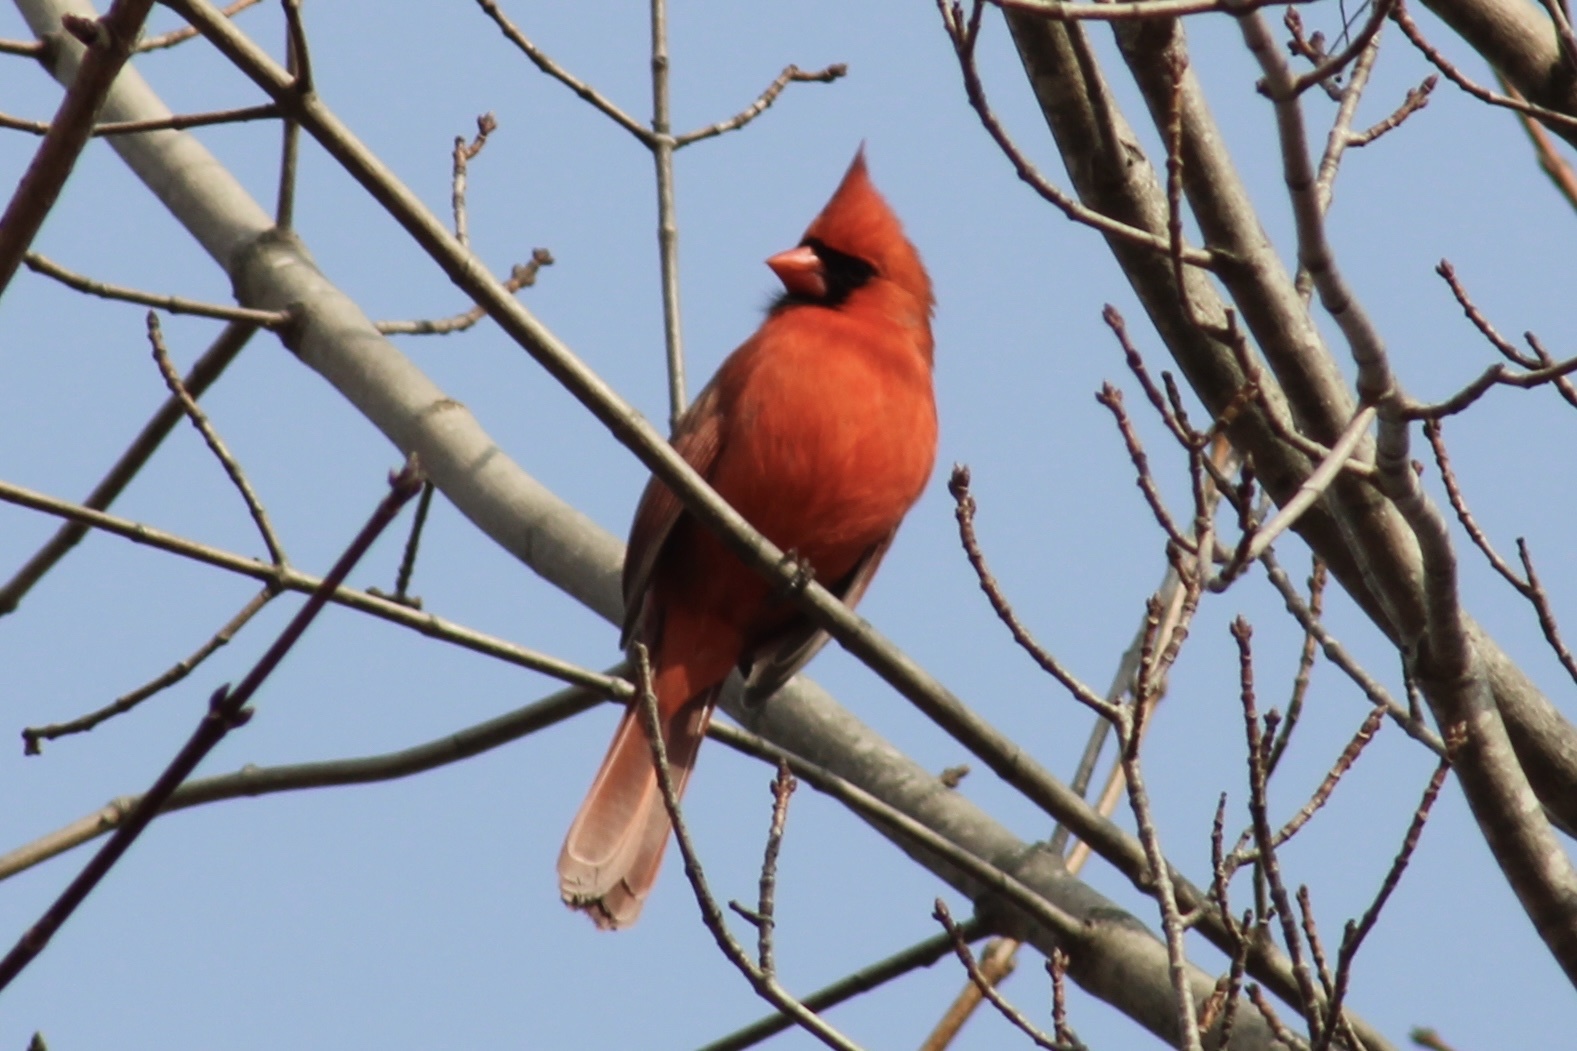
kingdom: Animalia
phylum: Chordata
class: Aves
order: Passeriformes
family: Cardinalidae
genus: Cardinalis
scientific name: Cardinalis cardinalis
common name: Northern cardinal
